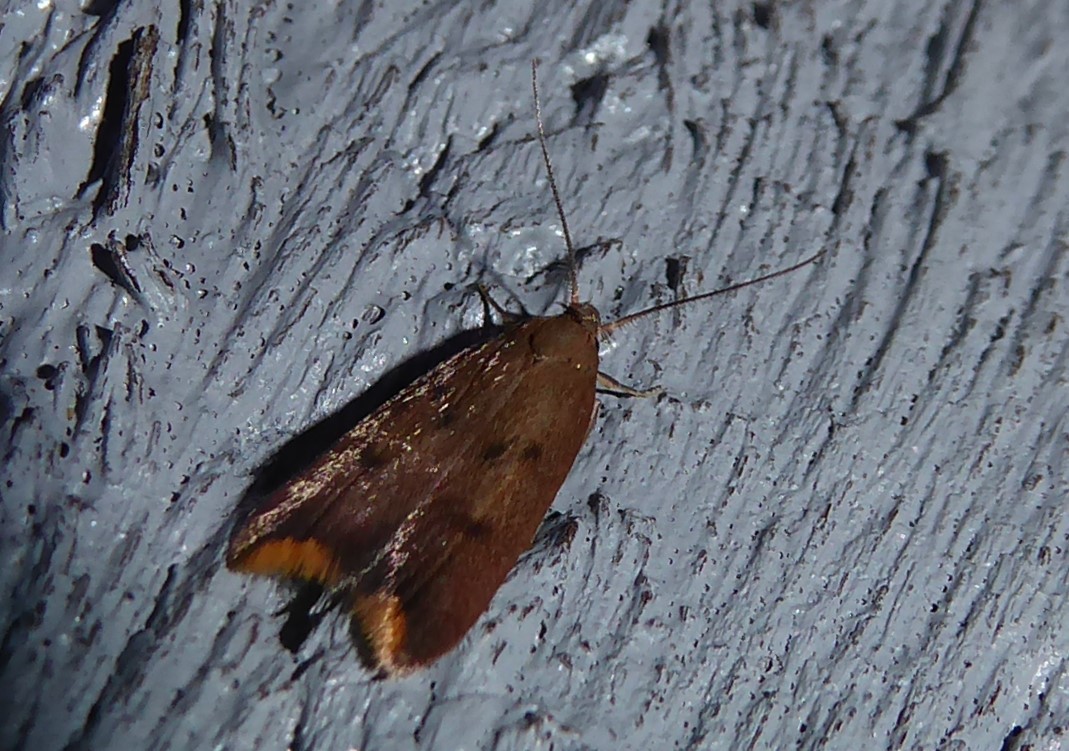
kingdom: Animalia
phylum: Arthropoda
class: Insecta
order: Lepidoptera
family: Oecophoridae
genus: Tachystola
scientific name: Tachystola acroxantha
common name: Ruddy streak
